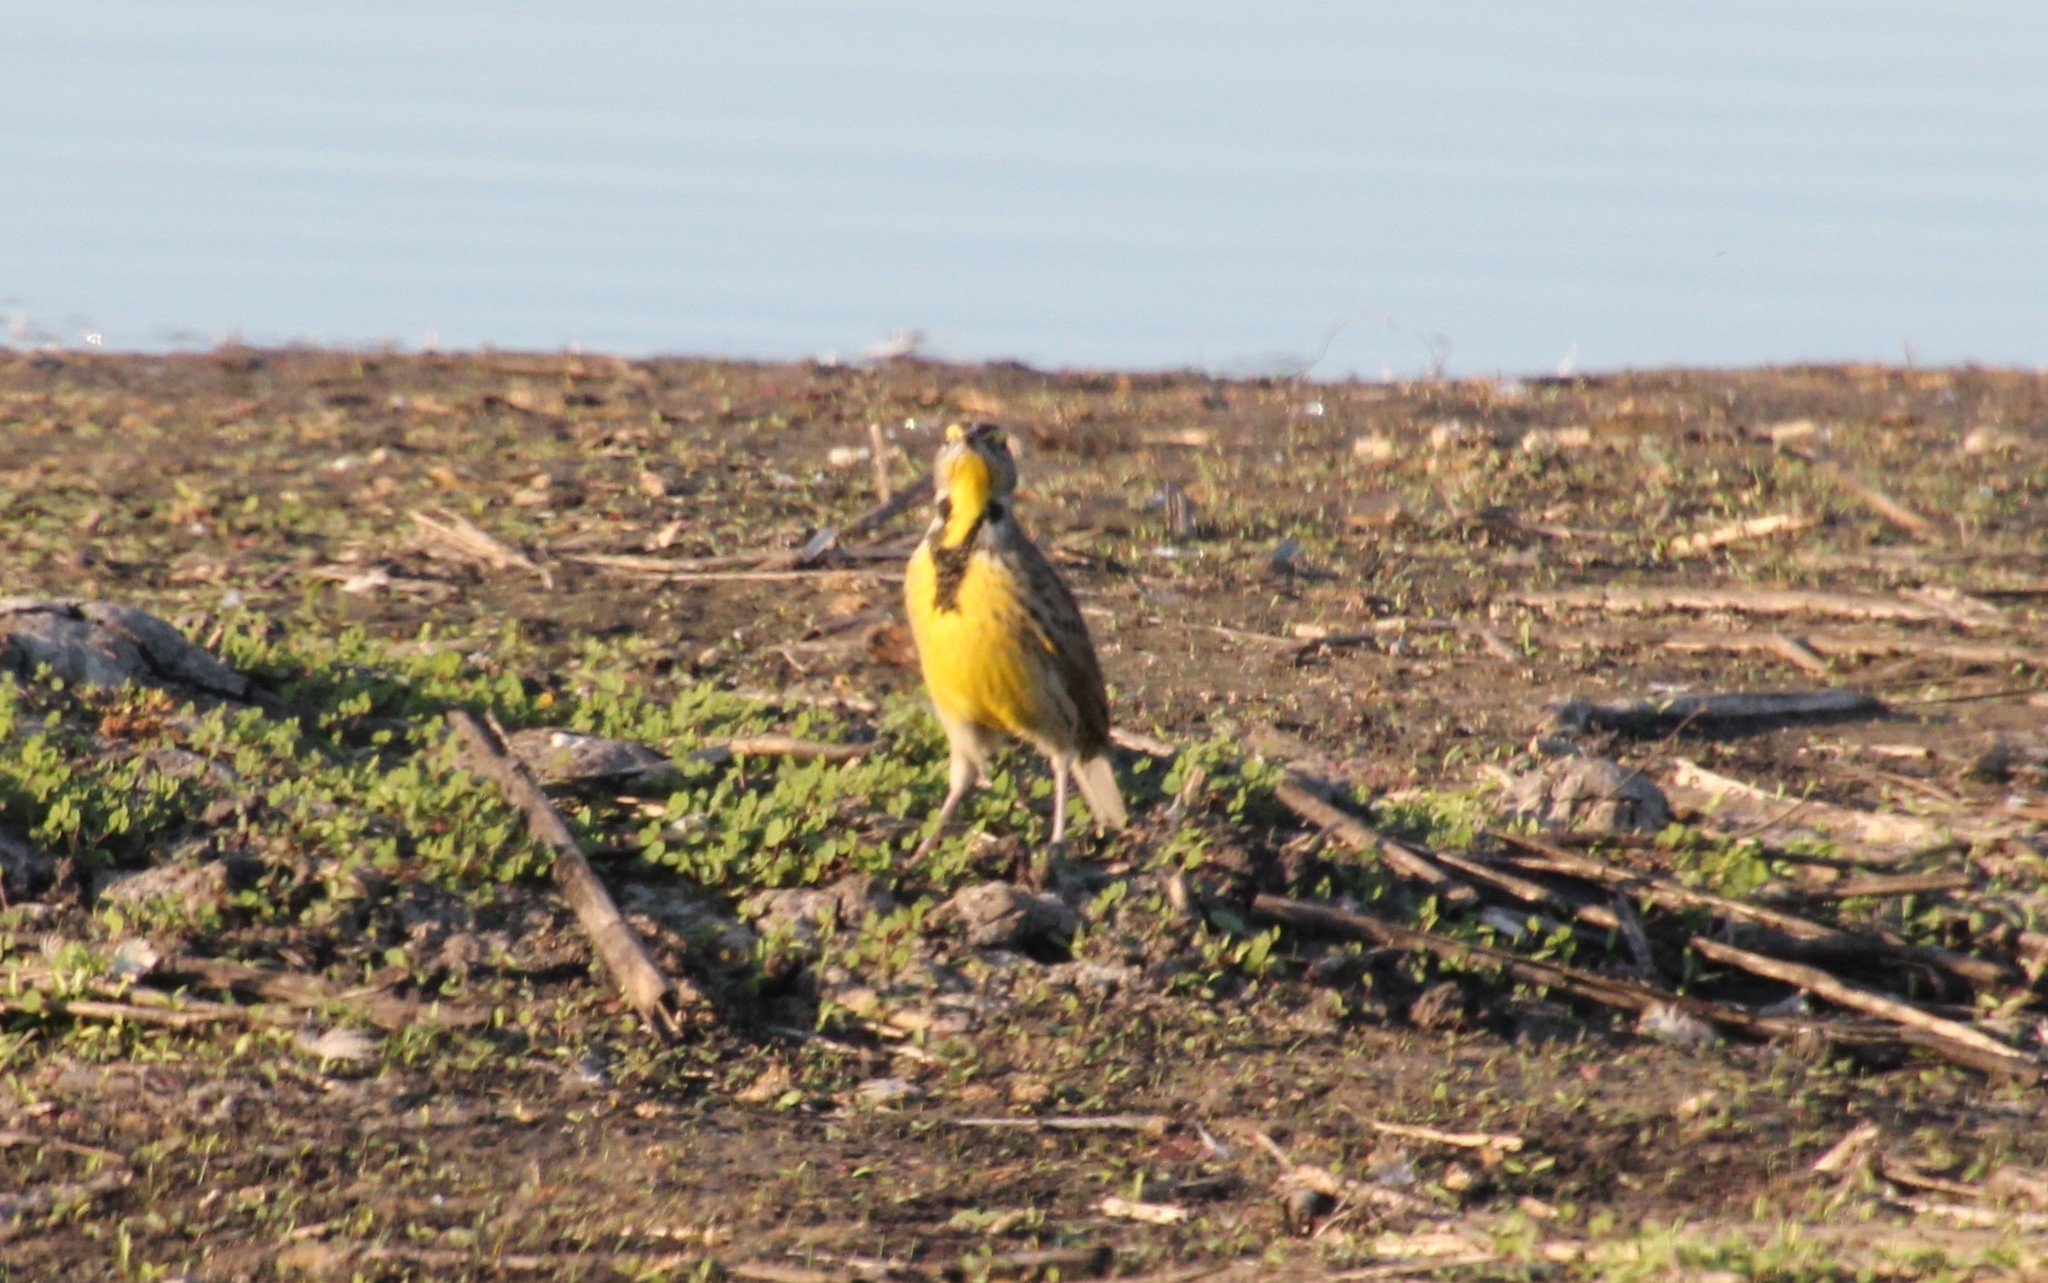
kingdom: Animalia
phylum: Chordata
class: Aves
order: Passeriformes
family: Icteridae
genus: Sturnella
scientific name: Sturnella neglecta
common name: Western meadowlark
